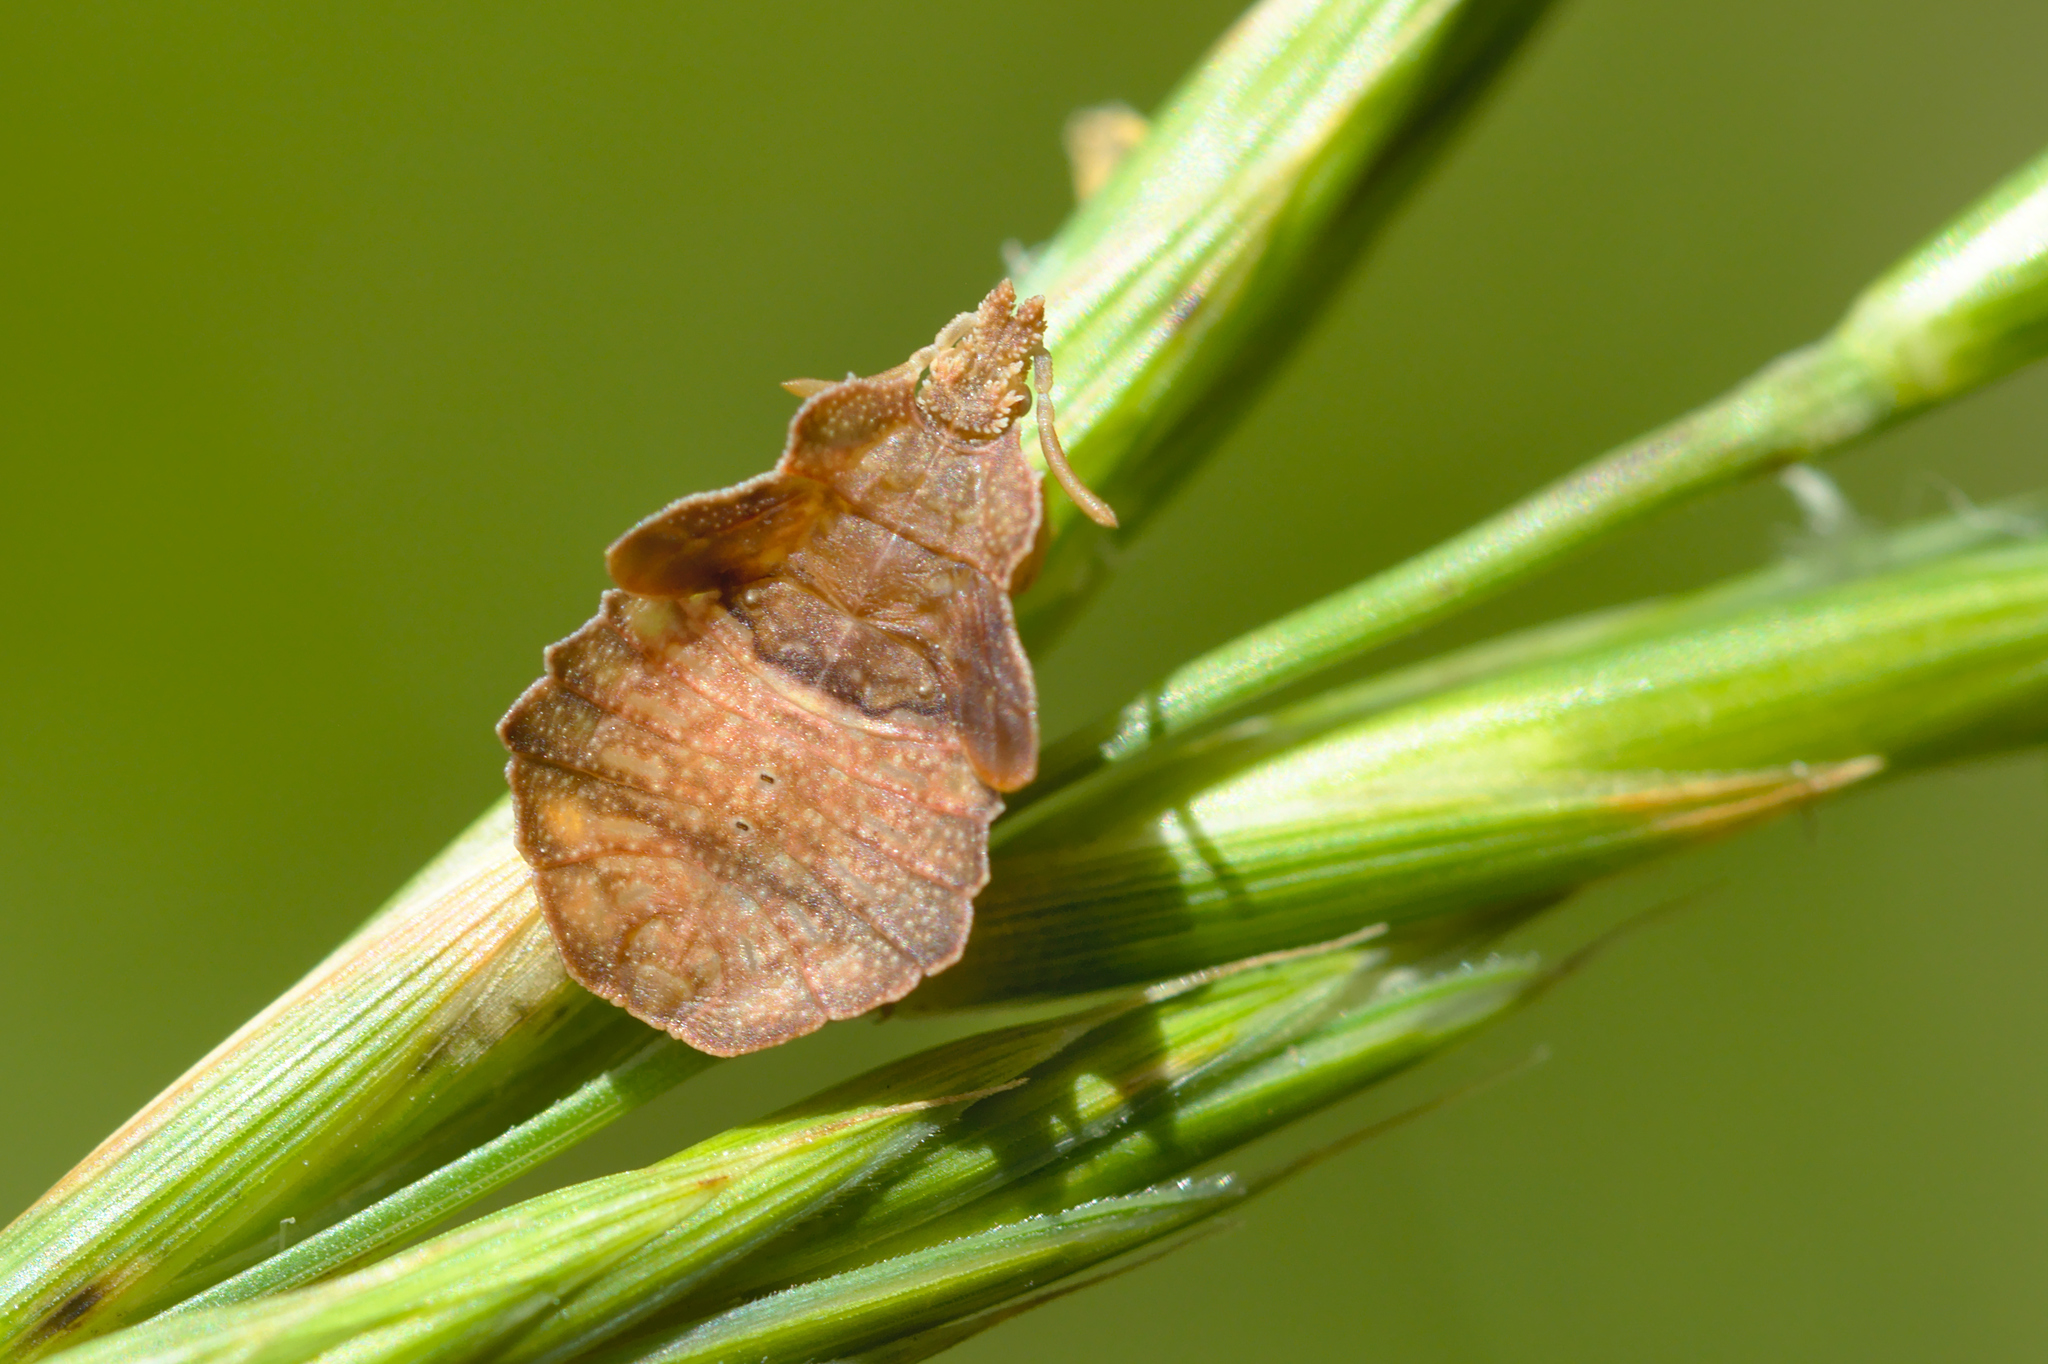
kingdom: Animalia
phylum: Arthropoda
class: Insecta
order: Hemiptera
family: Reduviidae
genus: Phymata
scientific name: Phymata crassipes
